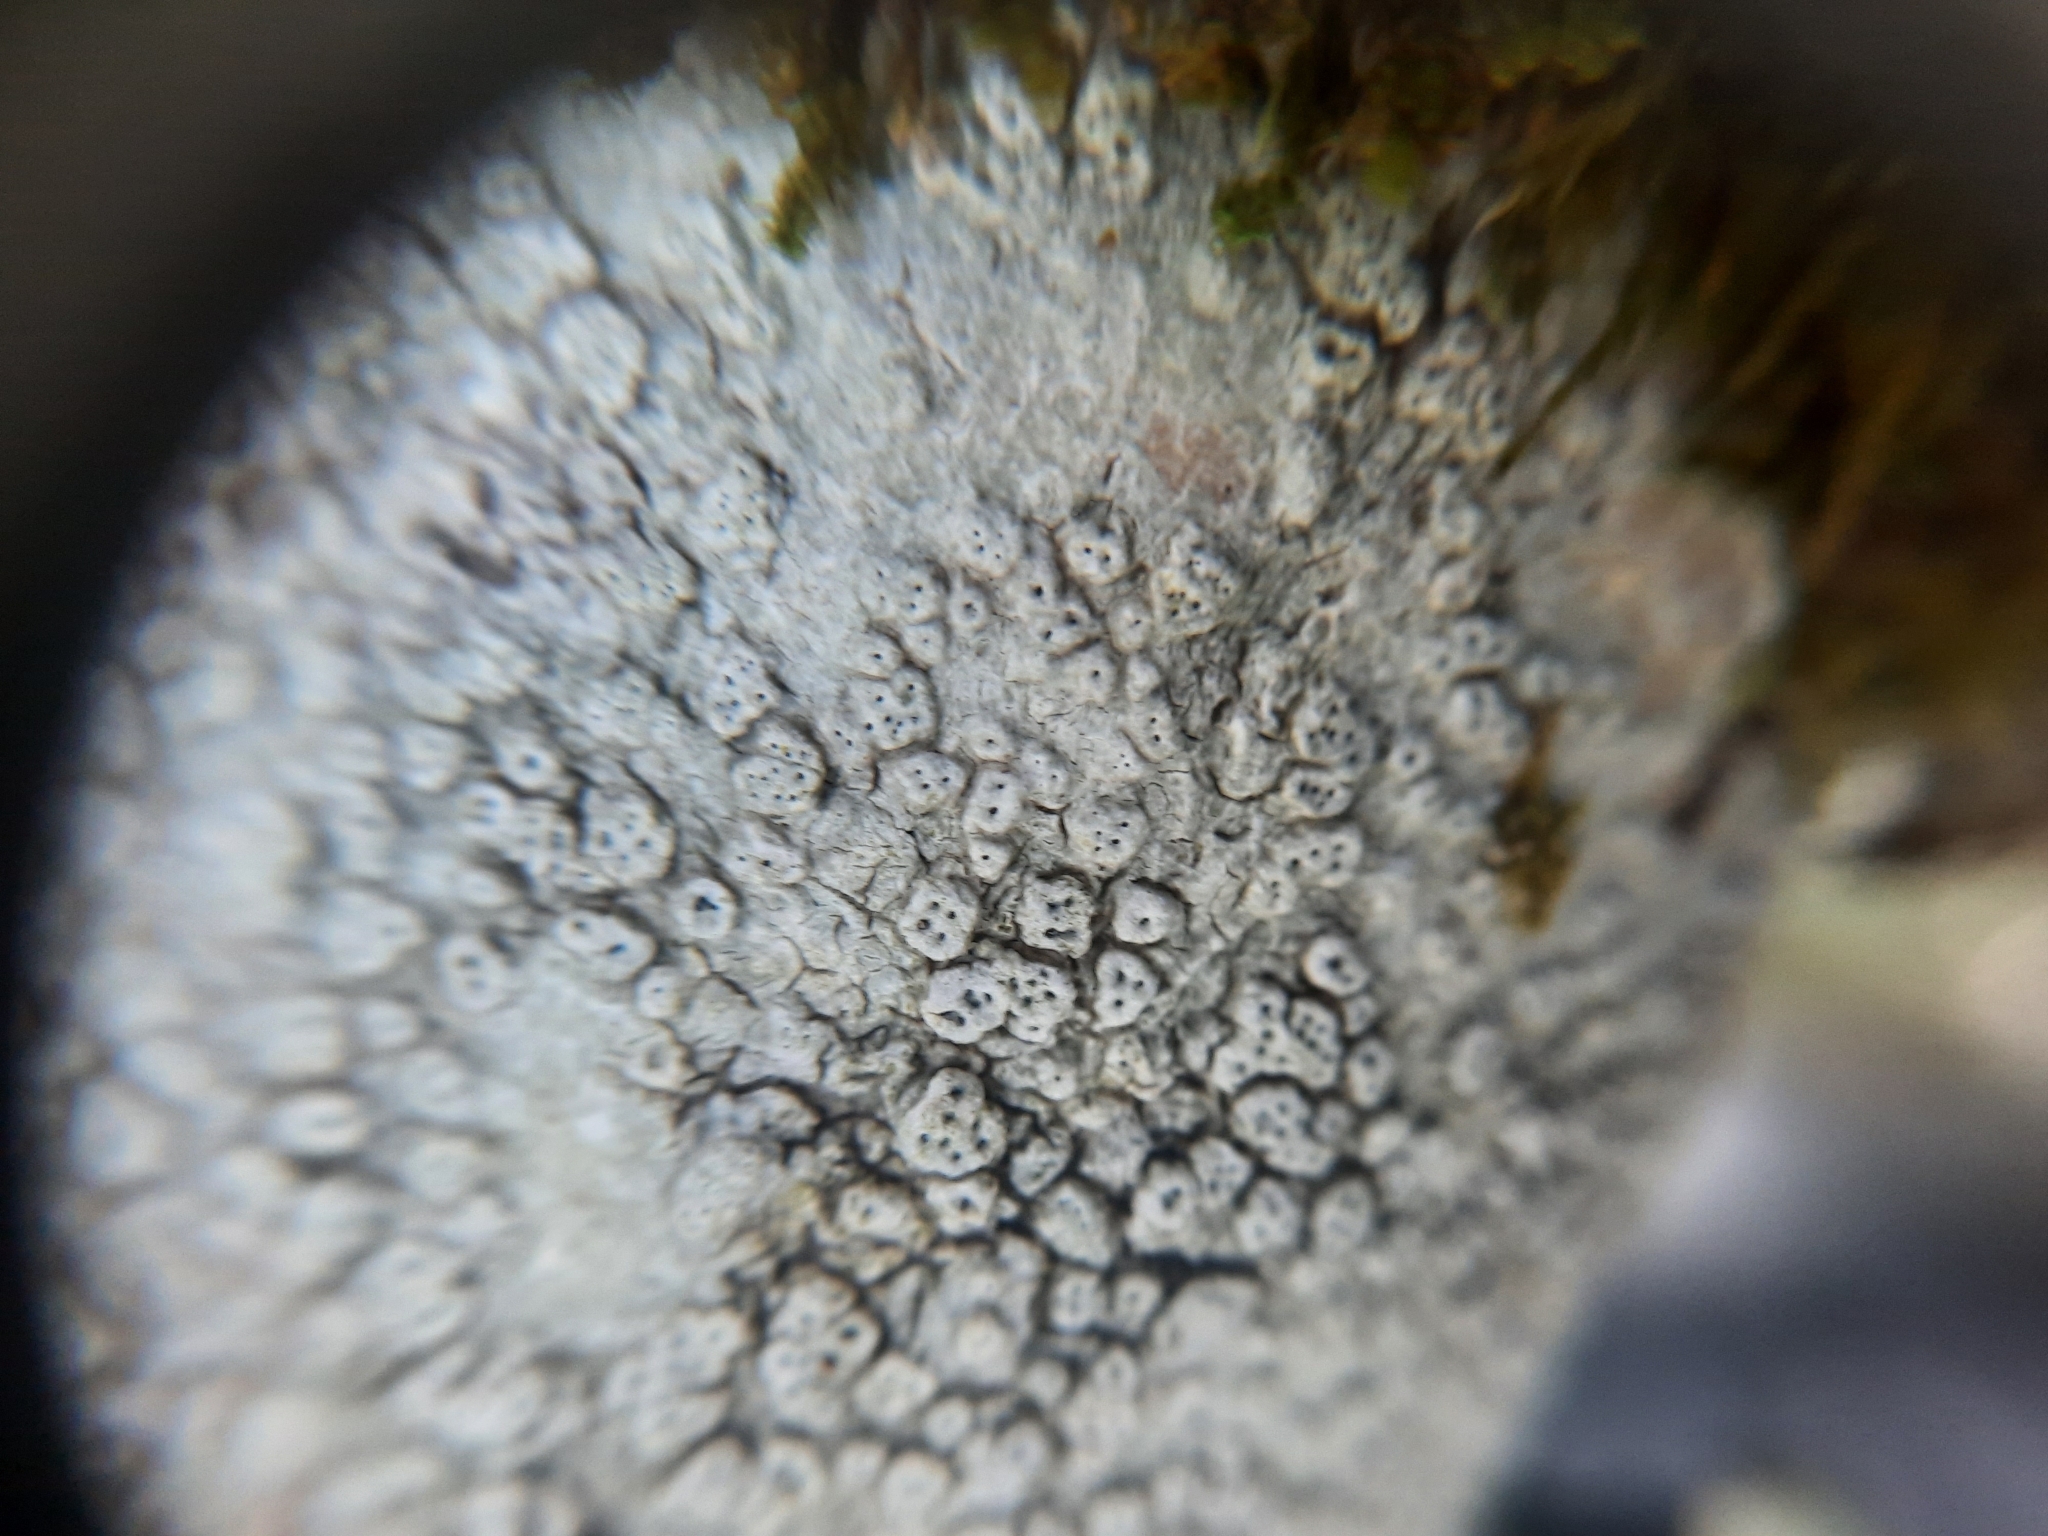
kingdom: Fungi
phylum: Ascomycota
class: Lecanoromycetes
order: Pertusariales
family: Pertusariaceae
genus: Pertusaria
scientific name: Pertusaria pertusa
